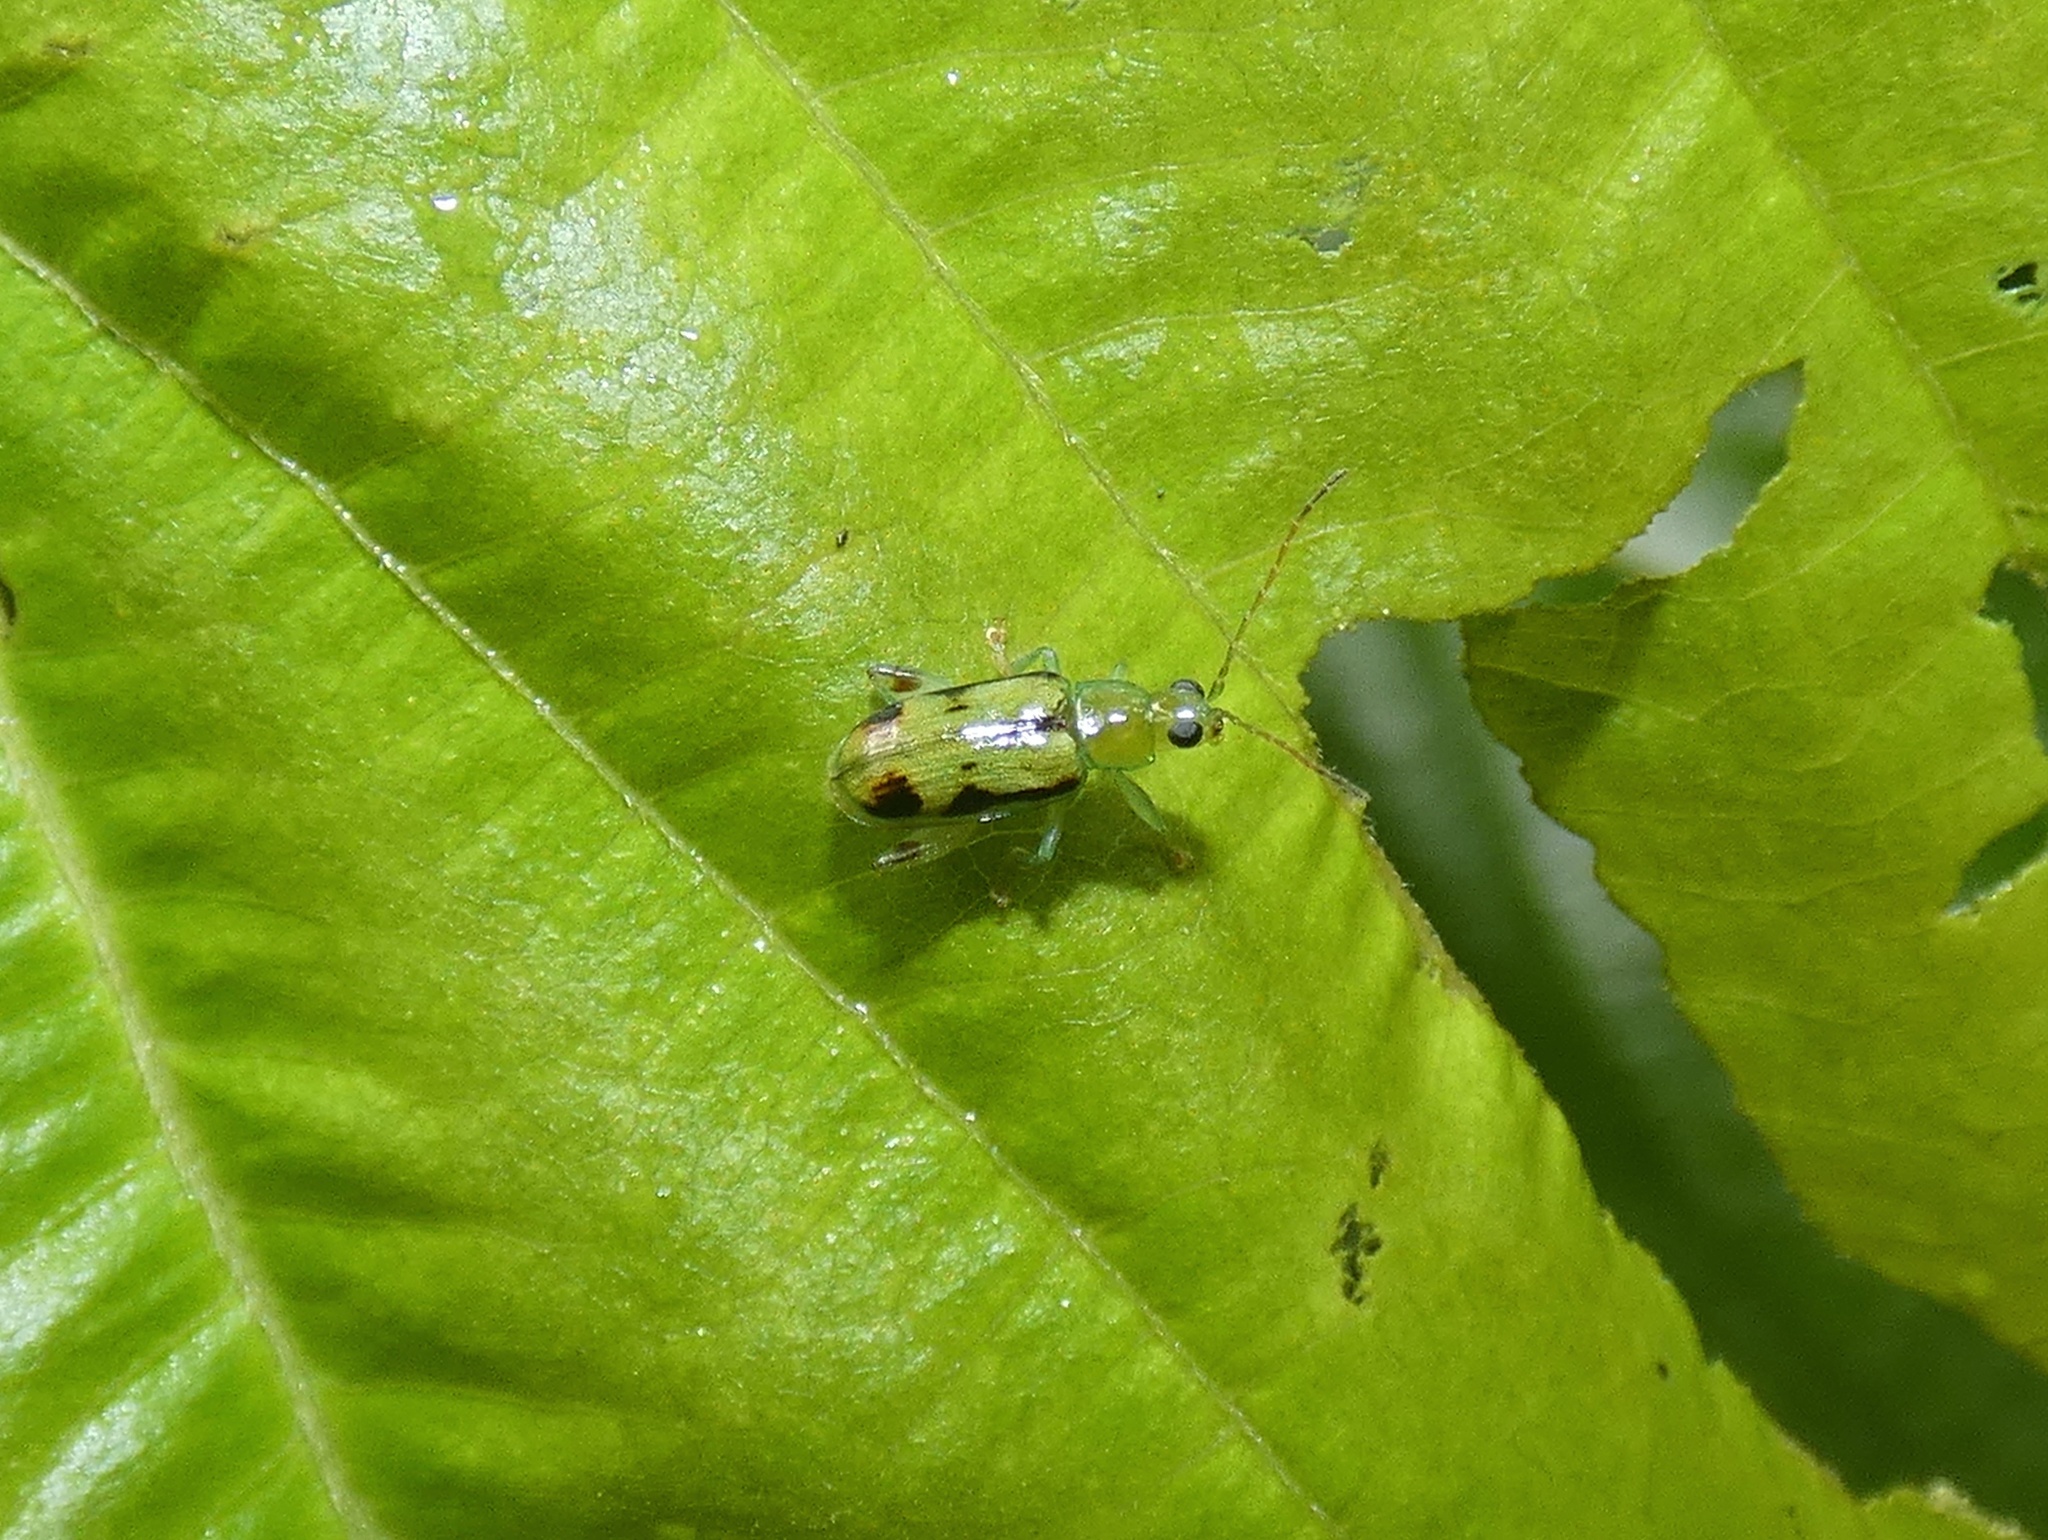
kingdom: Animalia
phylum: Arthropoda
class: Insecta
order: Coleoptera
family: Chrysomelidae
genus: Systena
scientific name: Systena oberthuri
